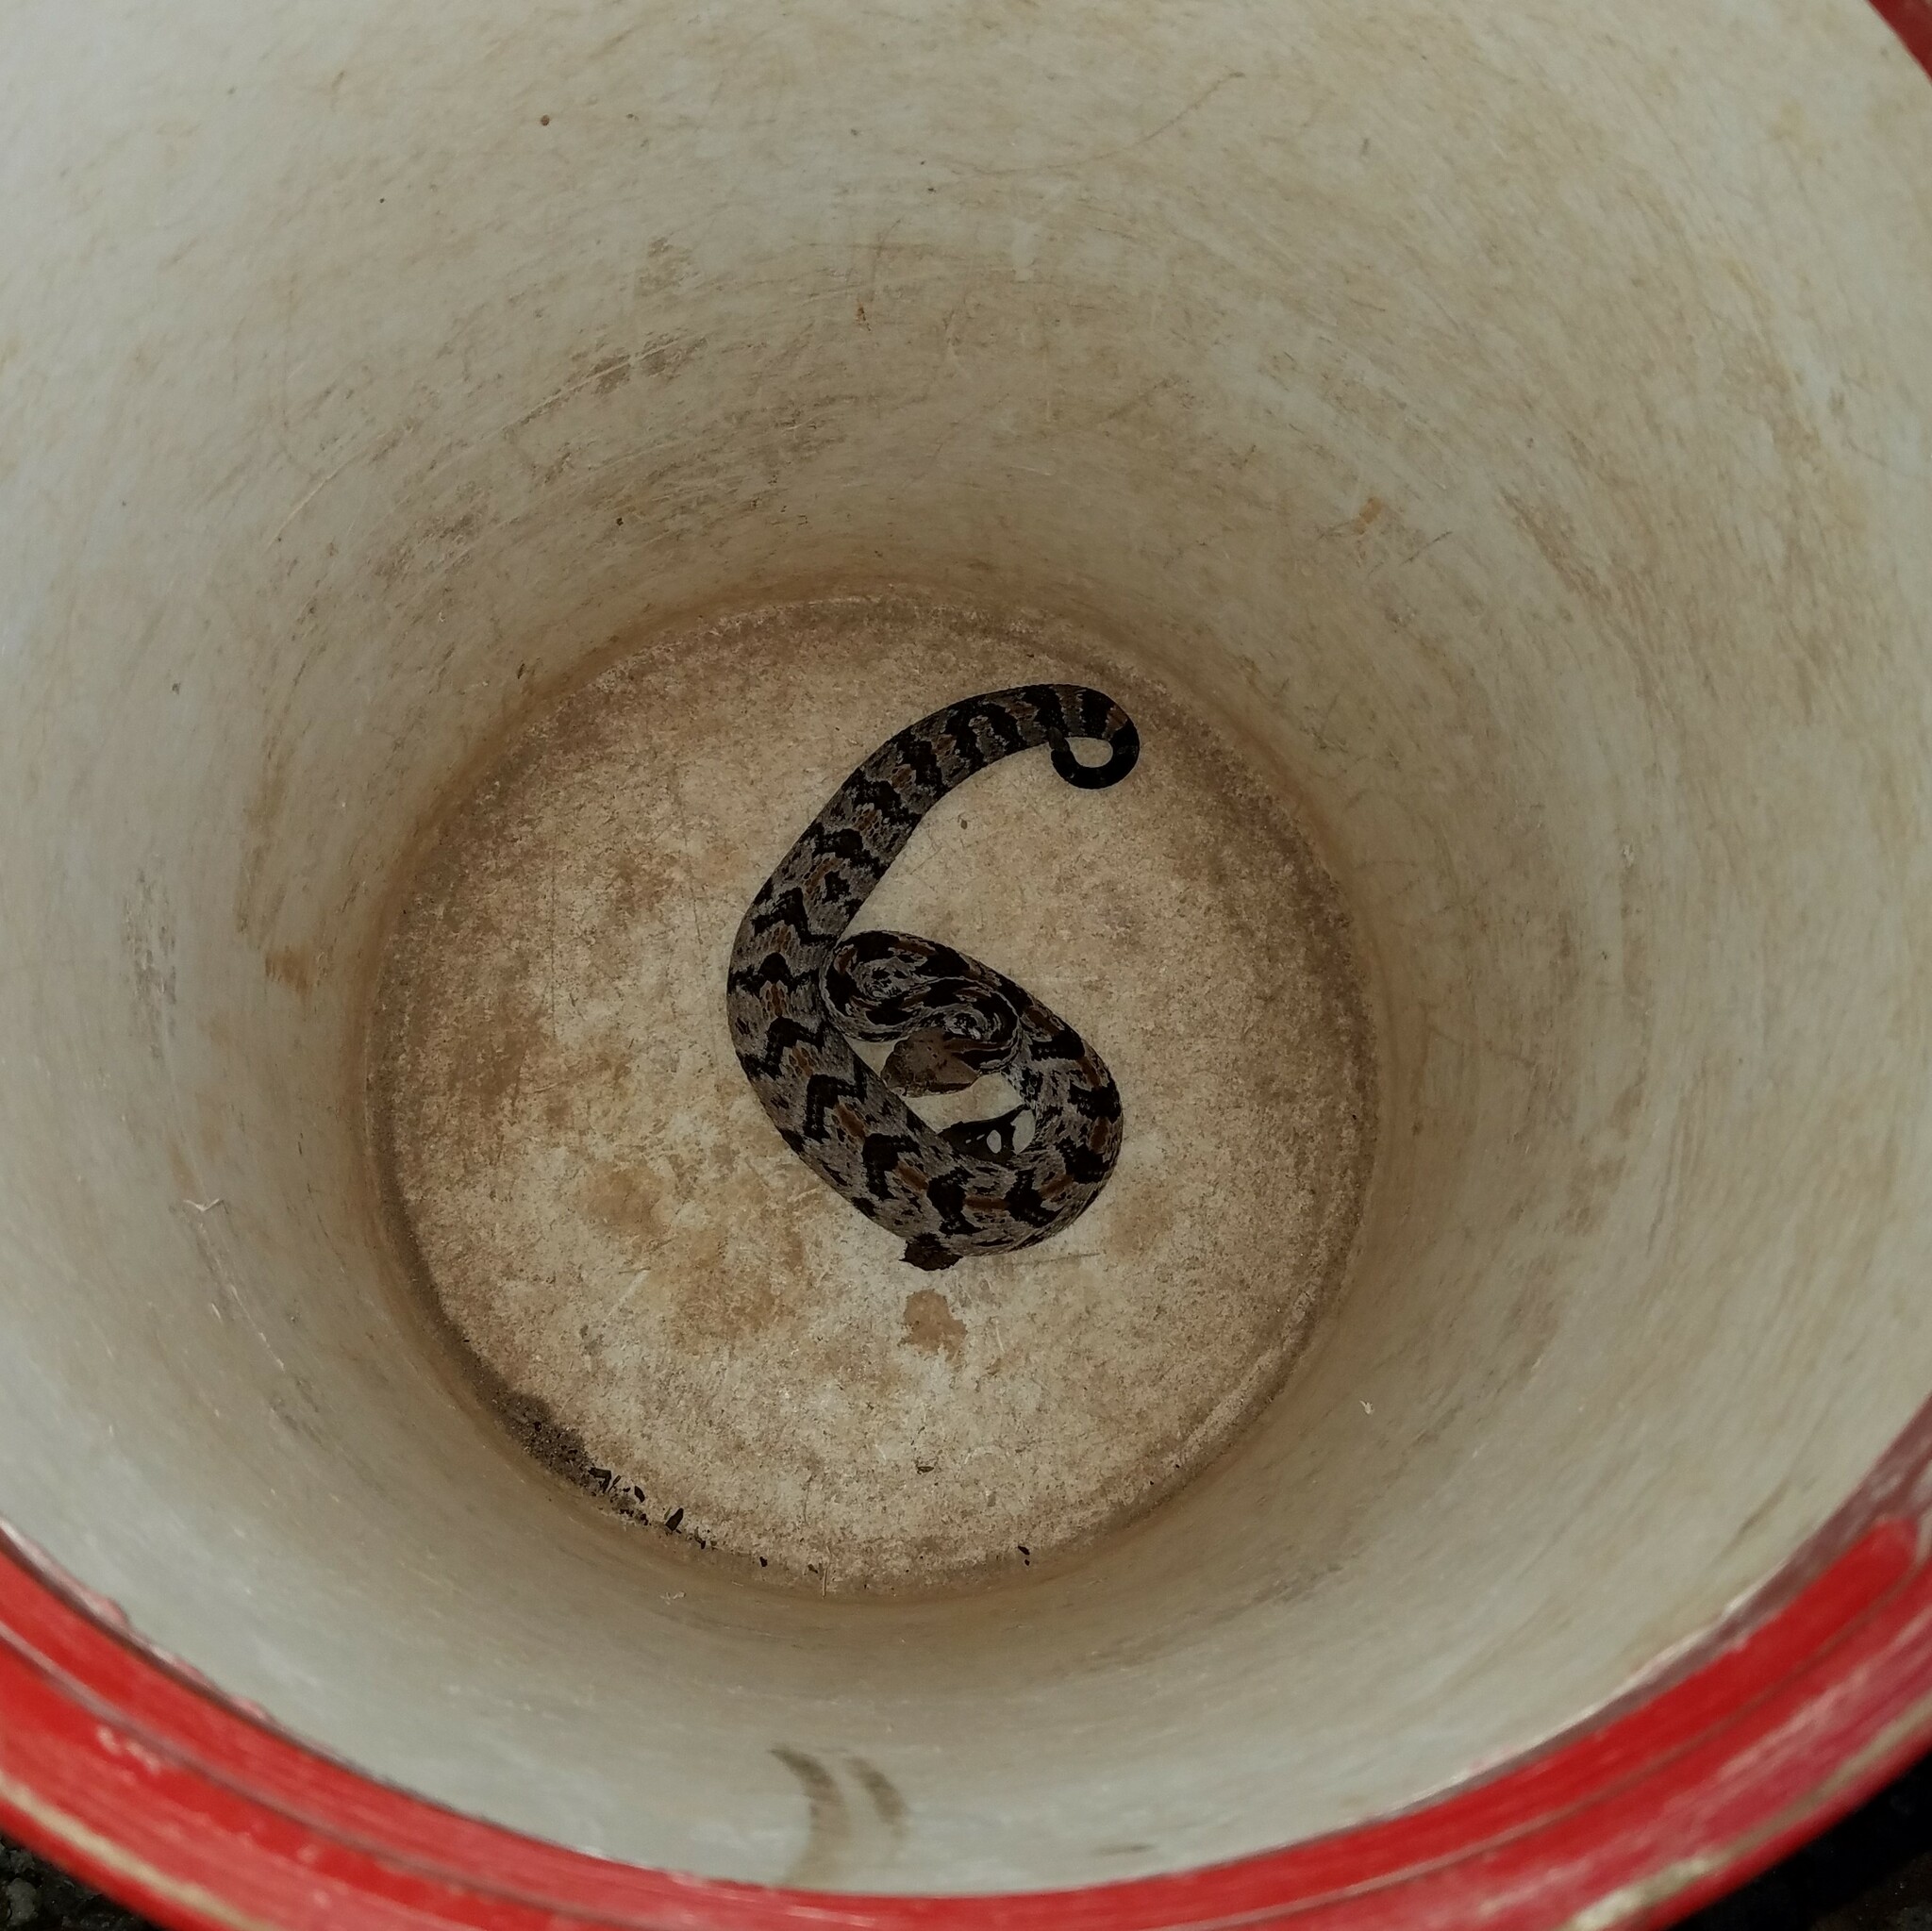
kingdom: Animalia
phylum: Chordata
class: Squamata
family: Viperidae
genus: Crotalus
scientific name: Crotalus horridus
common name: Timber rattlesnake
